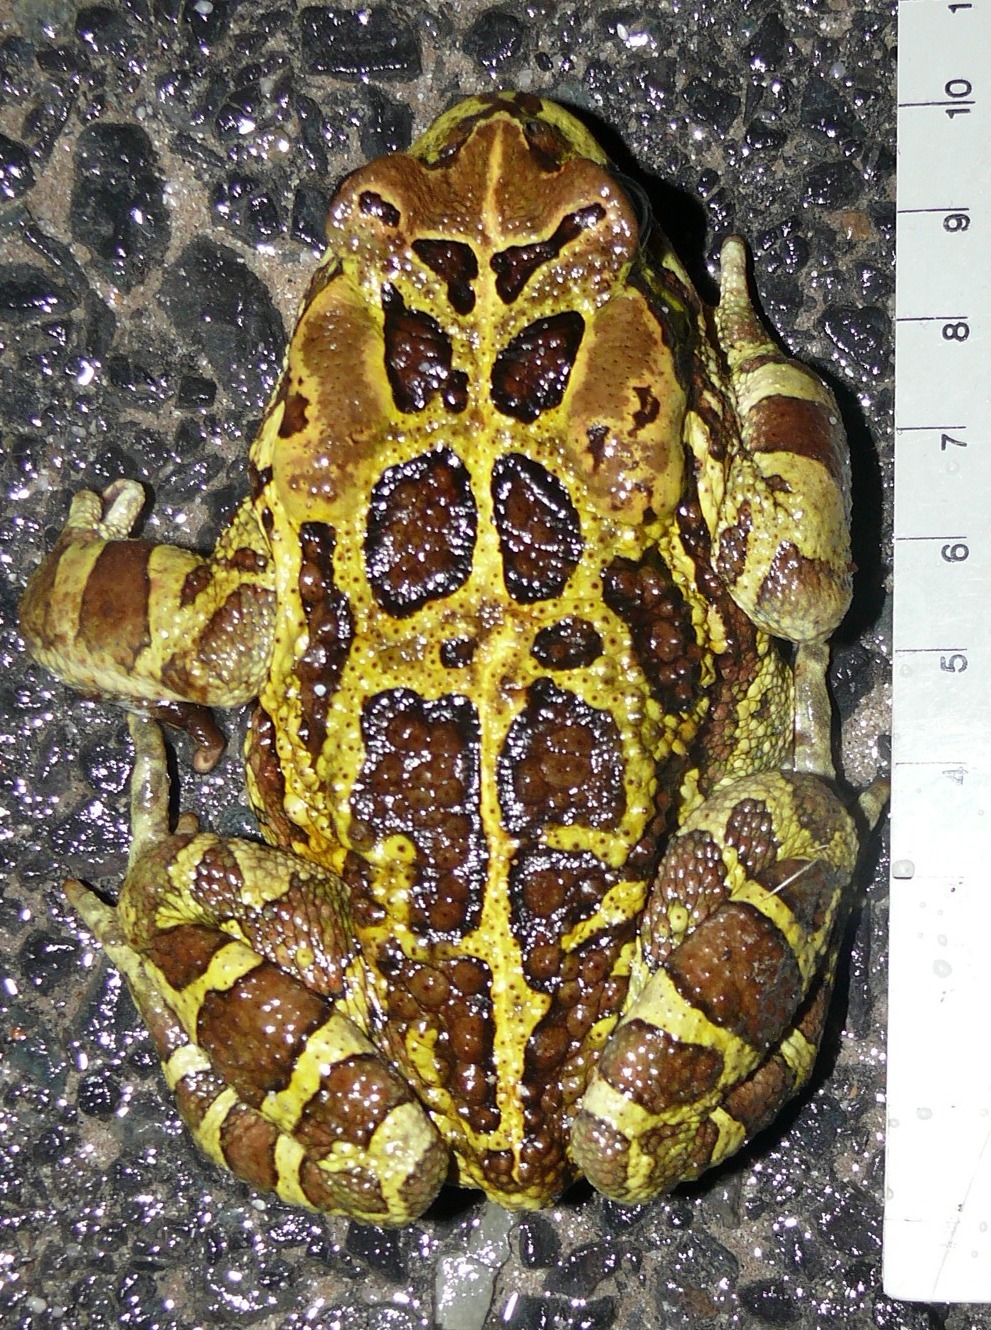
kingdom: Animalia
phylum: Chordata
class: Amphibia
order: Anura
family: Bufonidae
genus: Sclerophrys
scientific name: Sclerophrys pantherina
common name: Panther toad
